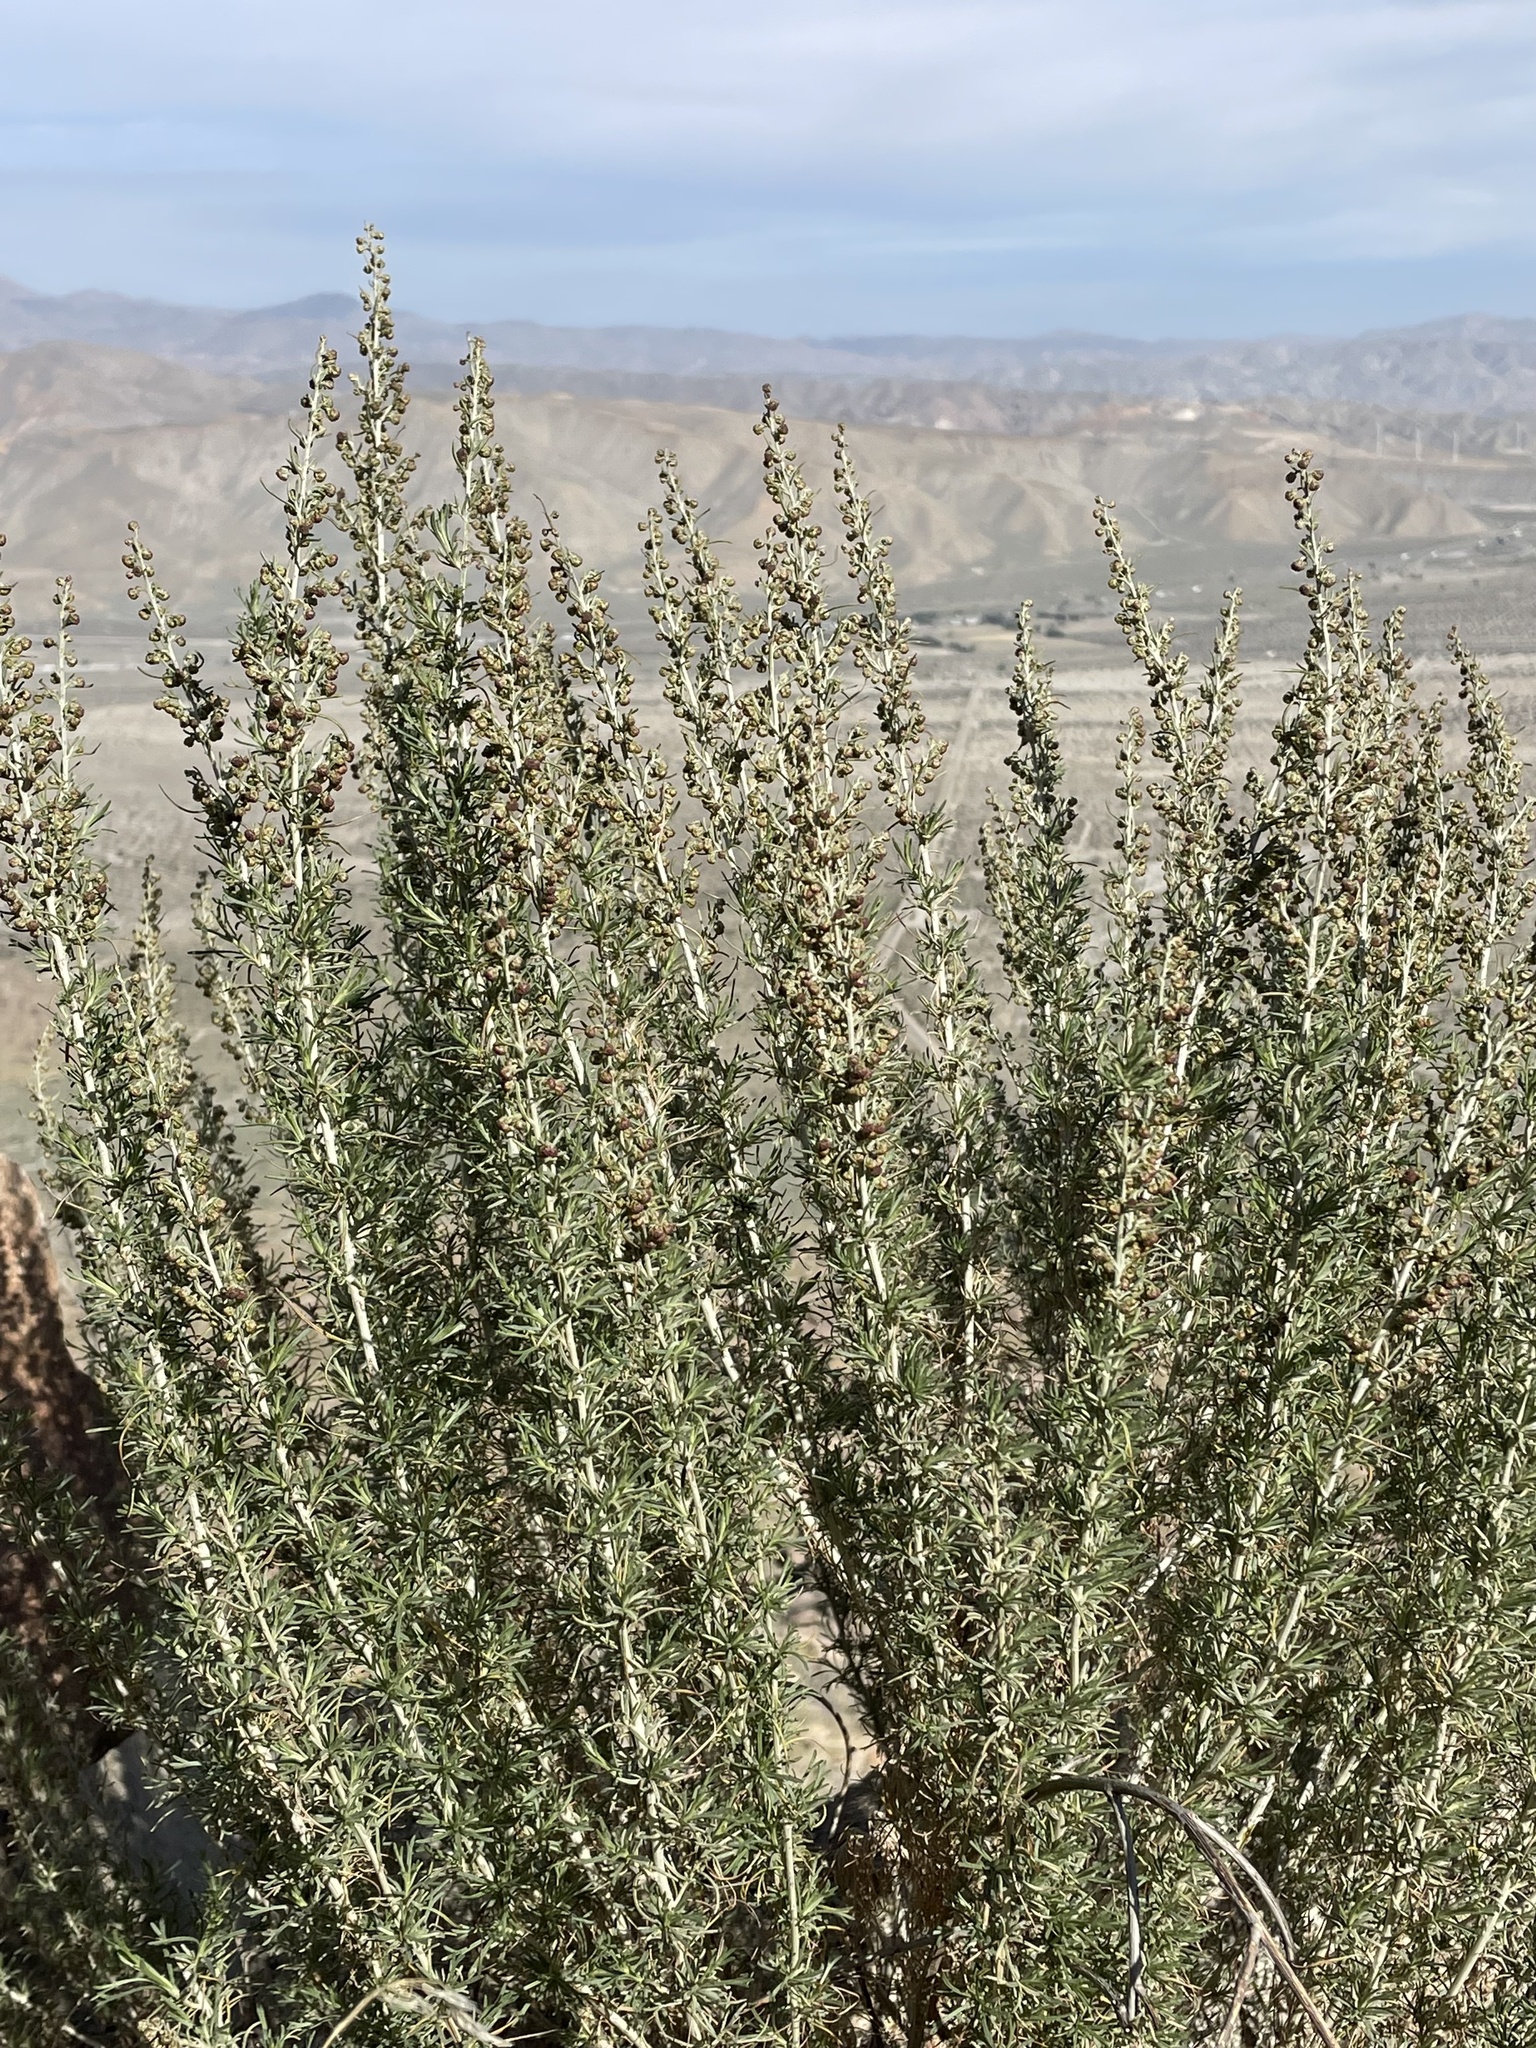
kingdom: Plantae
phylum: Tracheophyta
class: Magnoliopsida
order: Asterales
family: Asteraceae
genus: Artemisia
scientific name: Artemisia californica
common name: California sagebrush
